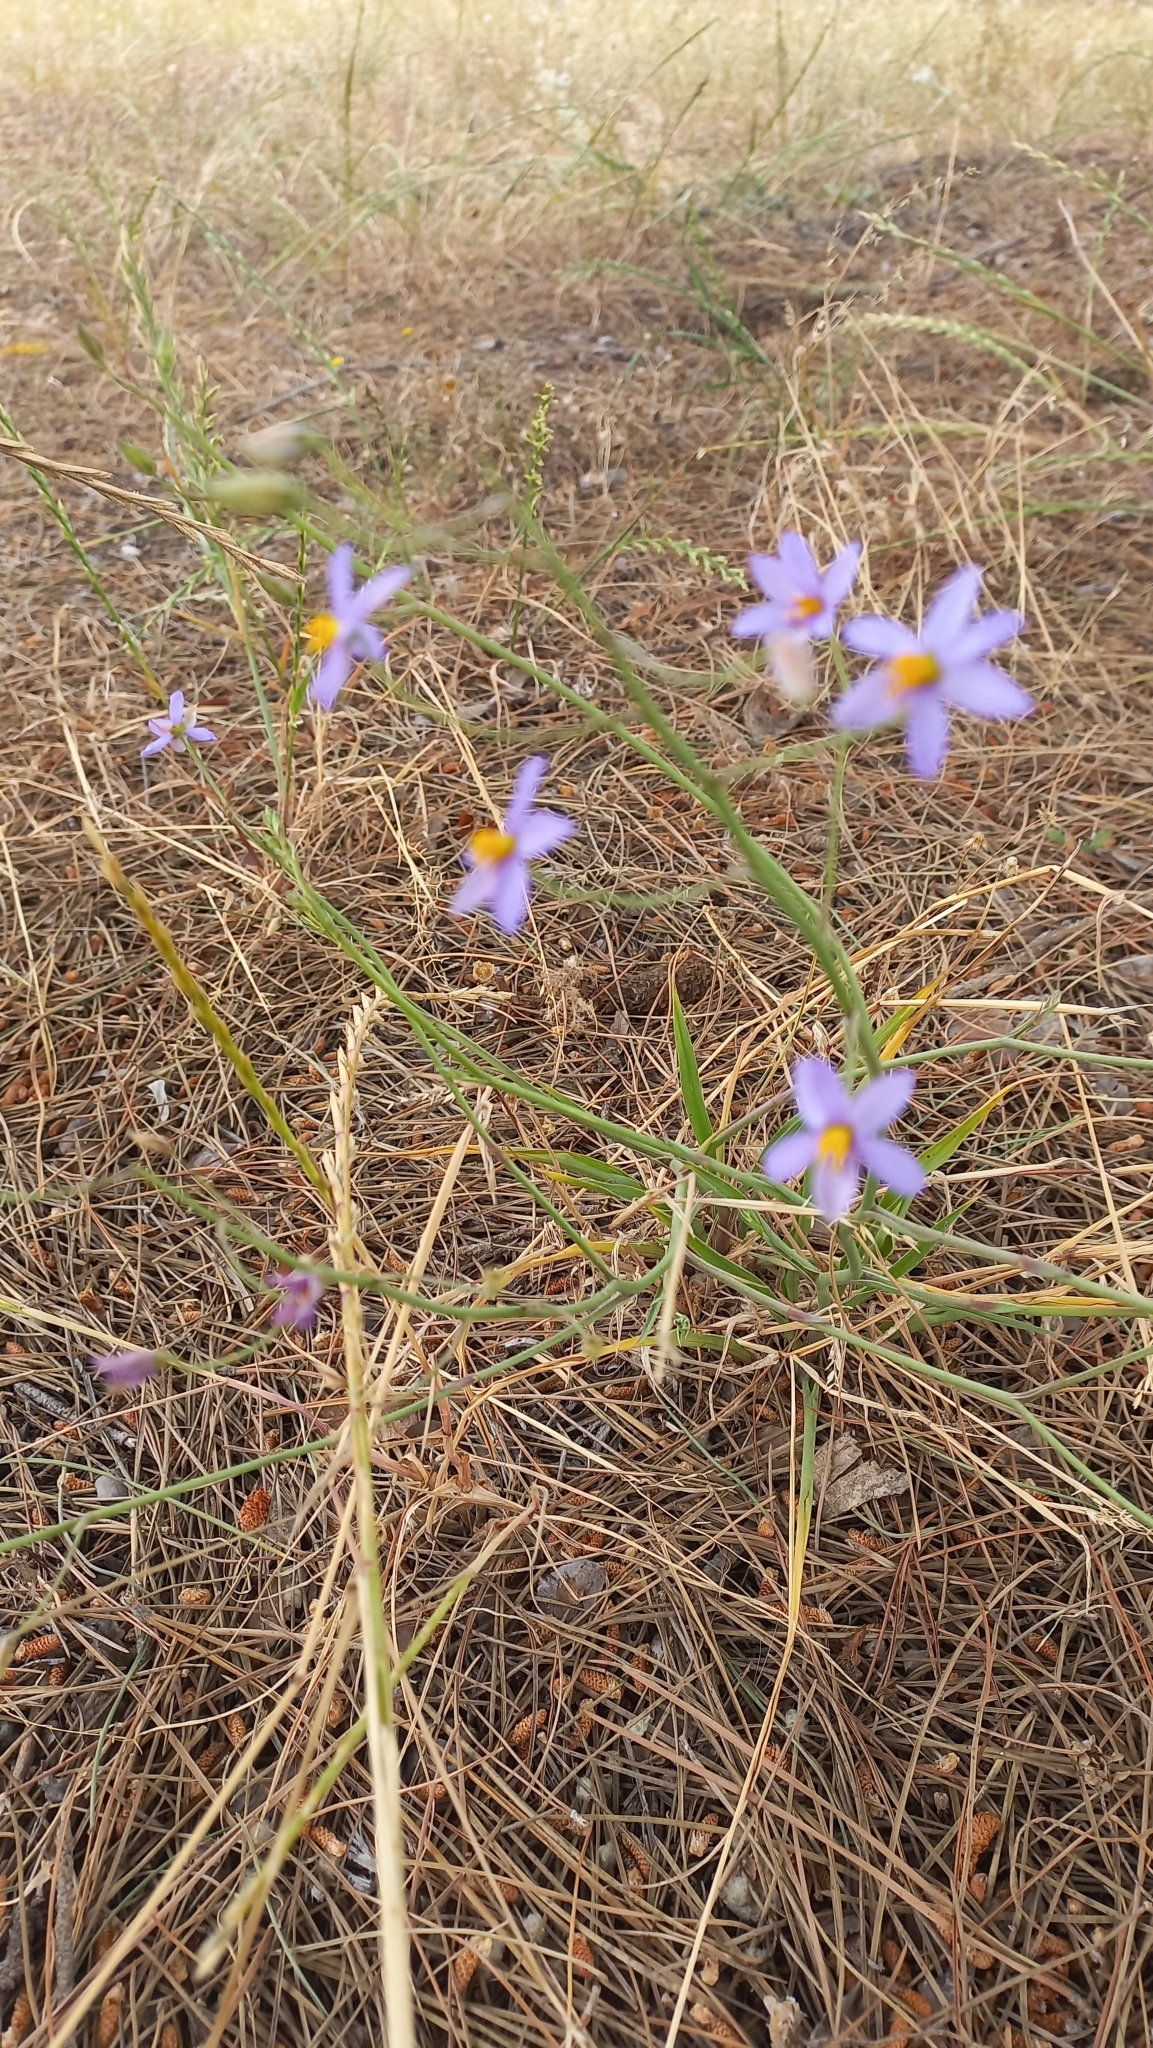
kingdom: Plantae
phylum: Tracheophyta
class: Liliopsida
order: Asparagales
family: Tecophilaeaceae
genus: Cyanella
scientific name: Cyanella hyacinthoides
